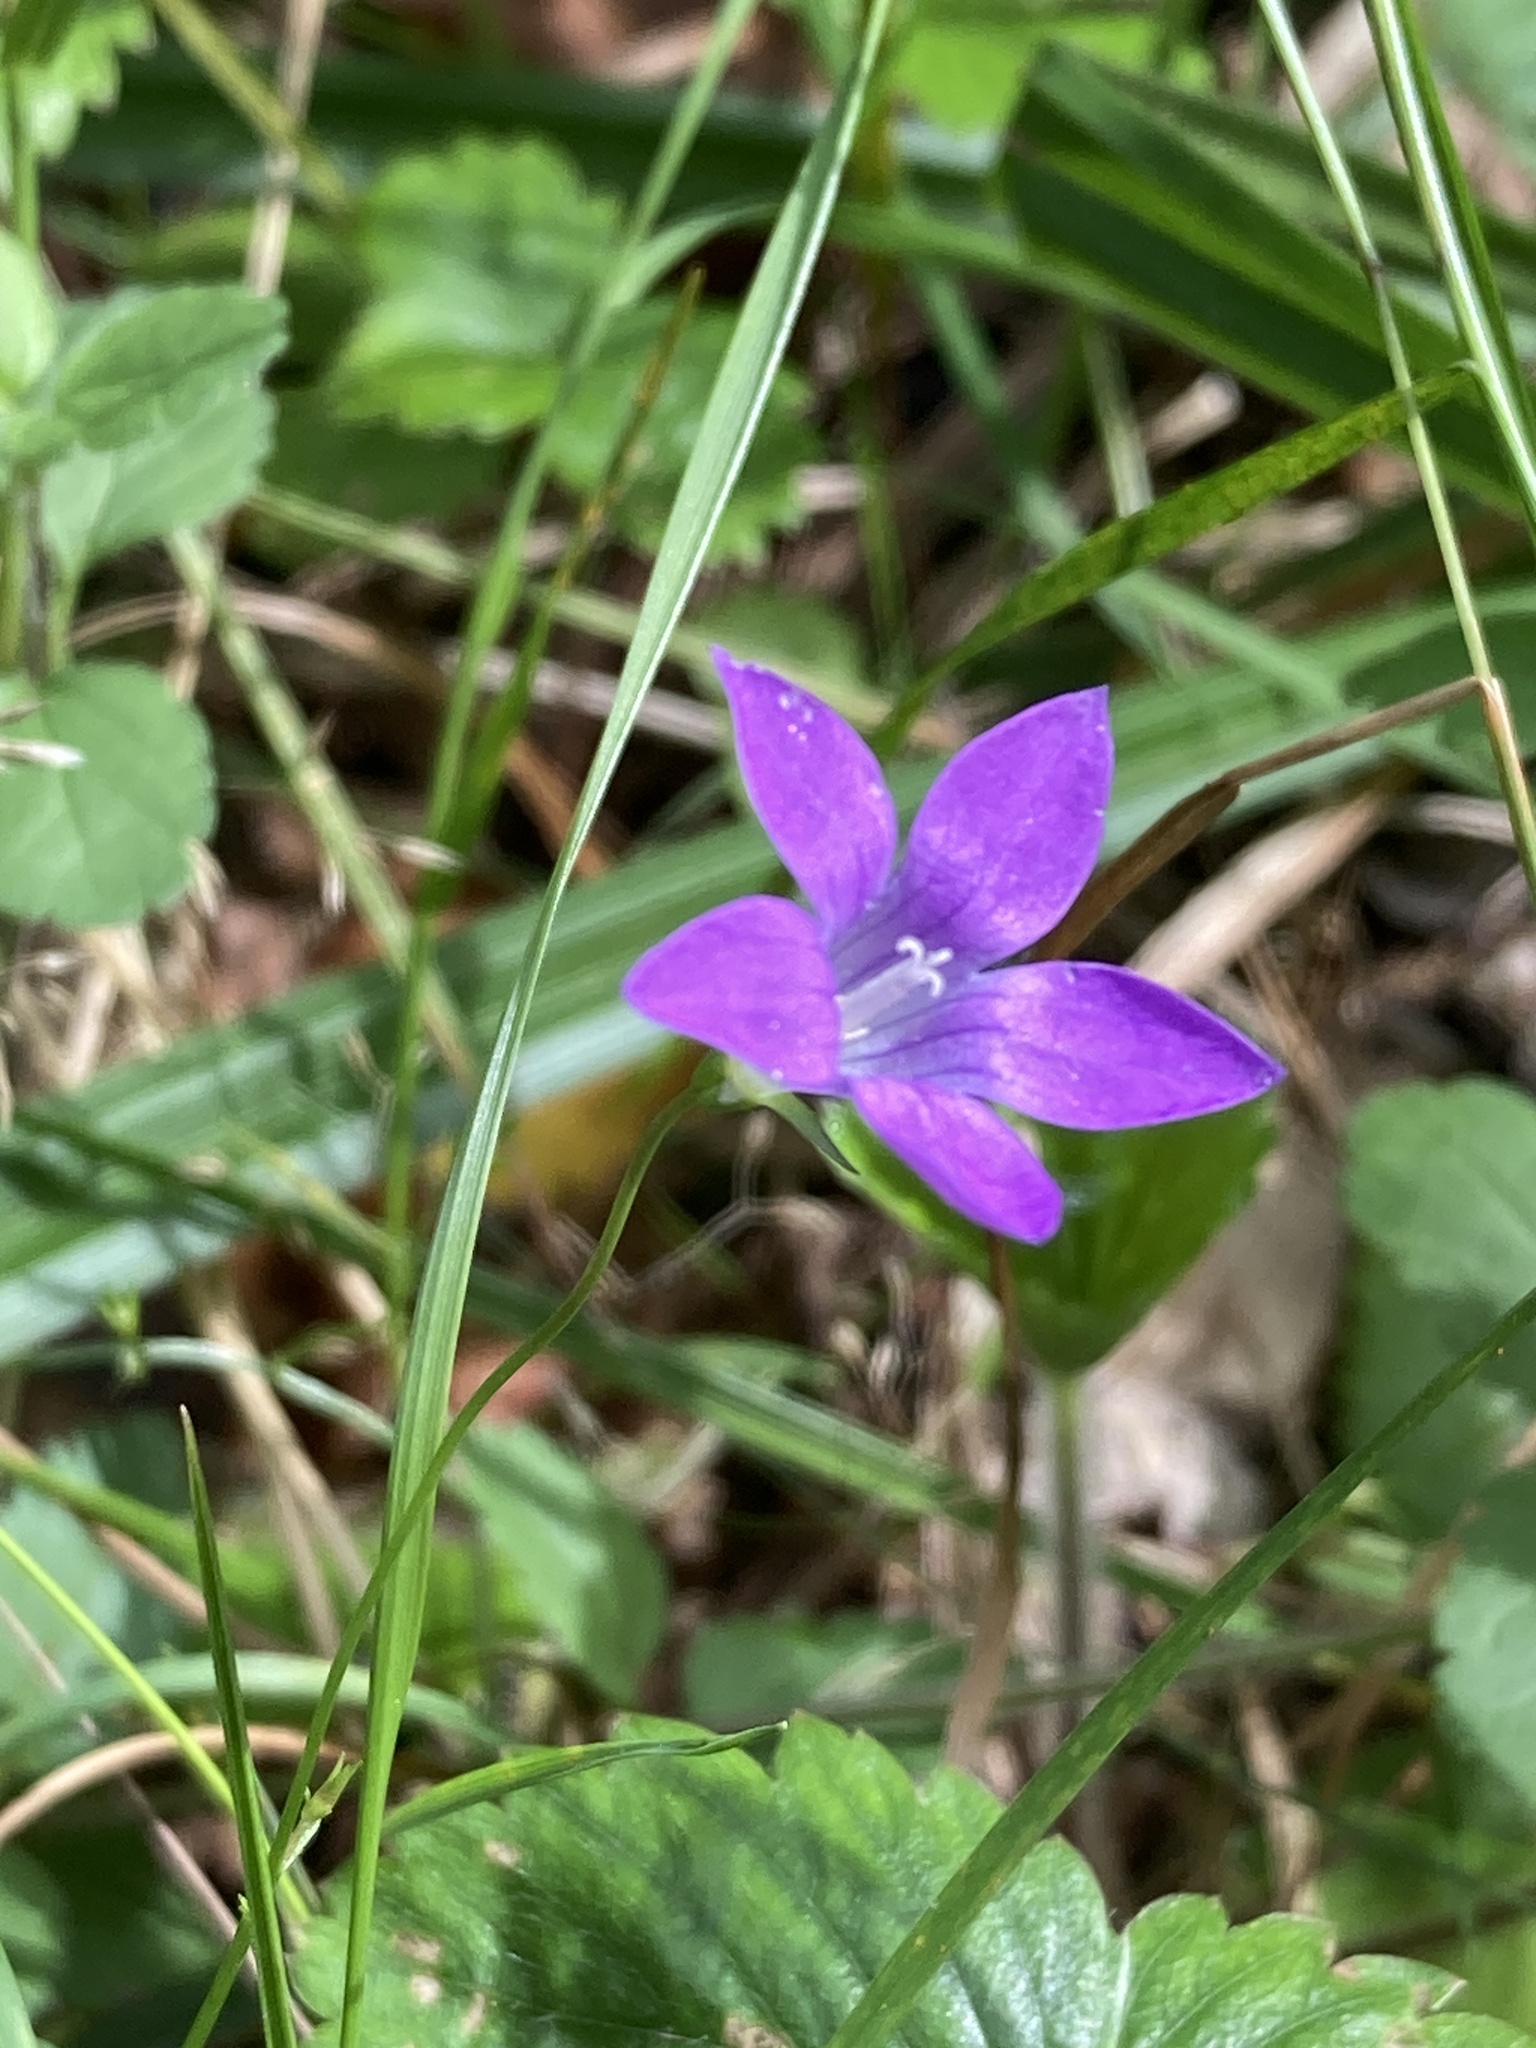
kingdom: Plantae
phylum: Tracheophyta
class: Magnoliopsida
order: Asterales
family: Campanulaceae
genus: Campanula
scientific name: Campanula patula
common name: Spreading bellflower
